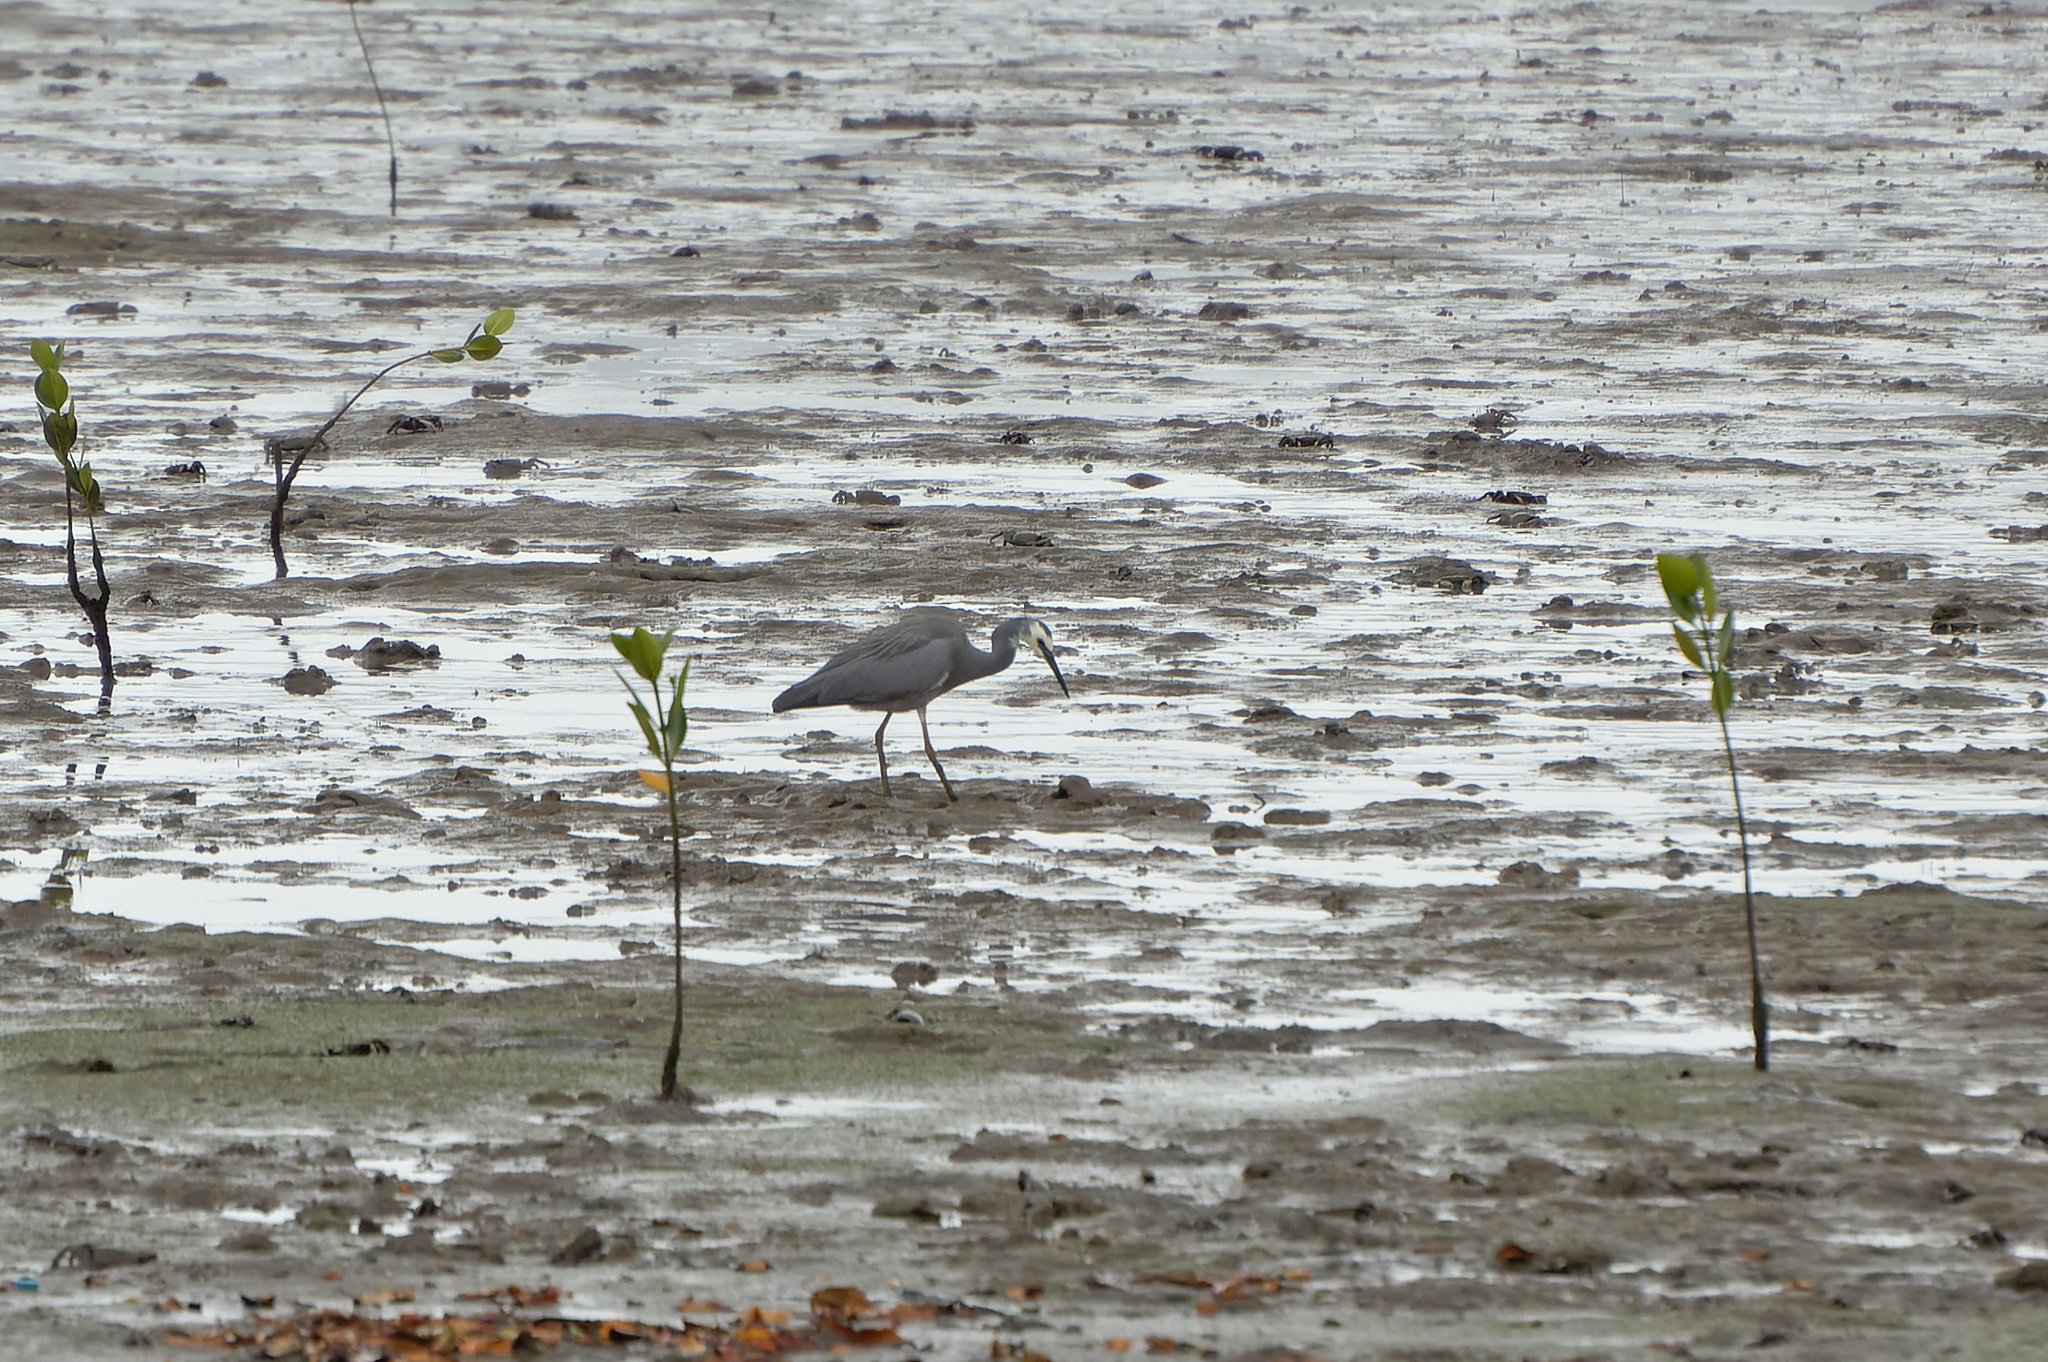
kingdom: Animalia
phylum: Chordata
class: Aves
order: Pelecaniformes
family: Ardeidae
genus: Egretta
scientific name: Egretta novaehollandiae
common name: White-faced heron
